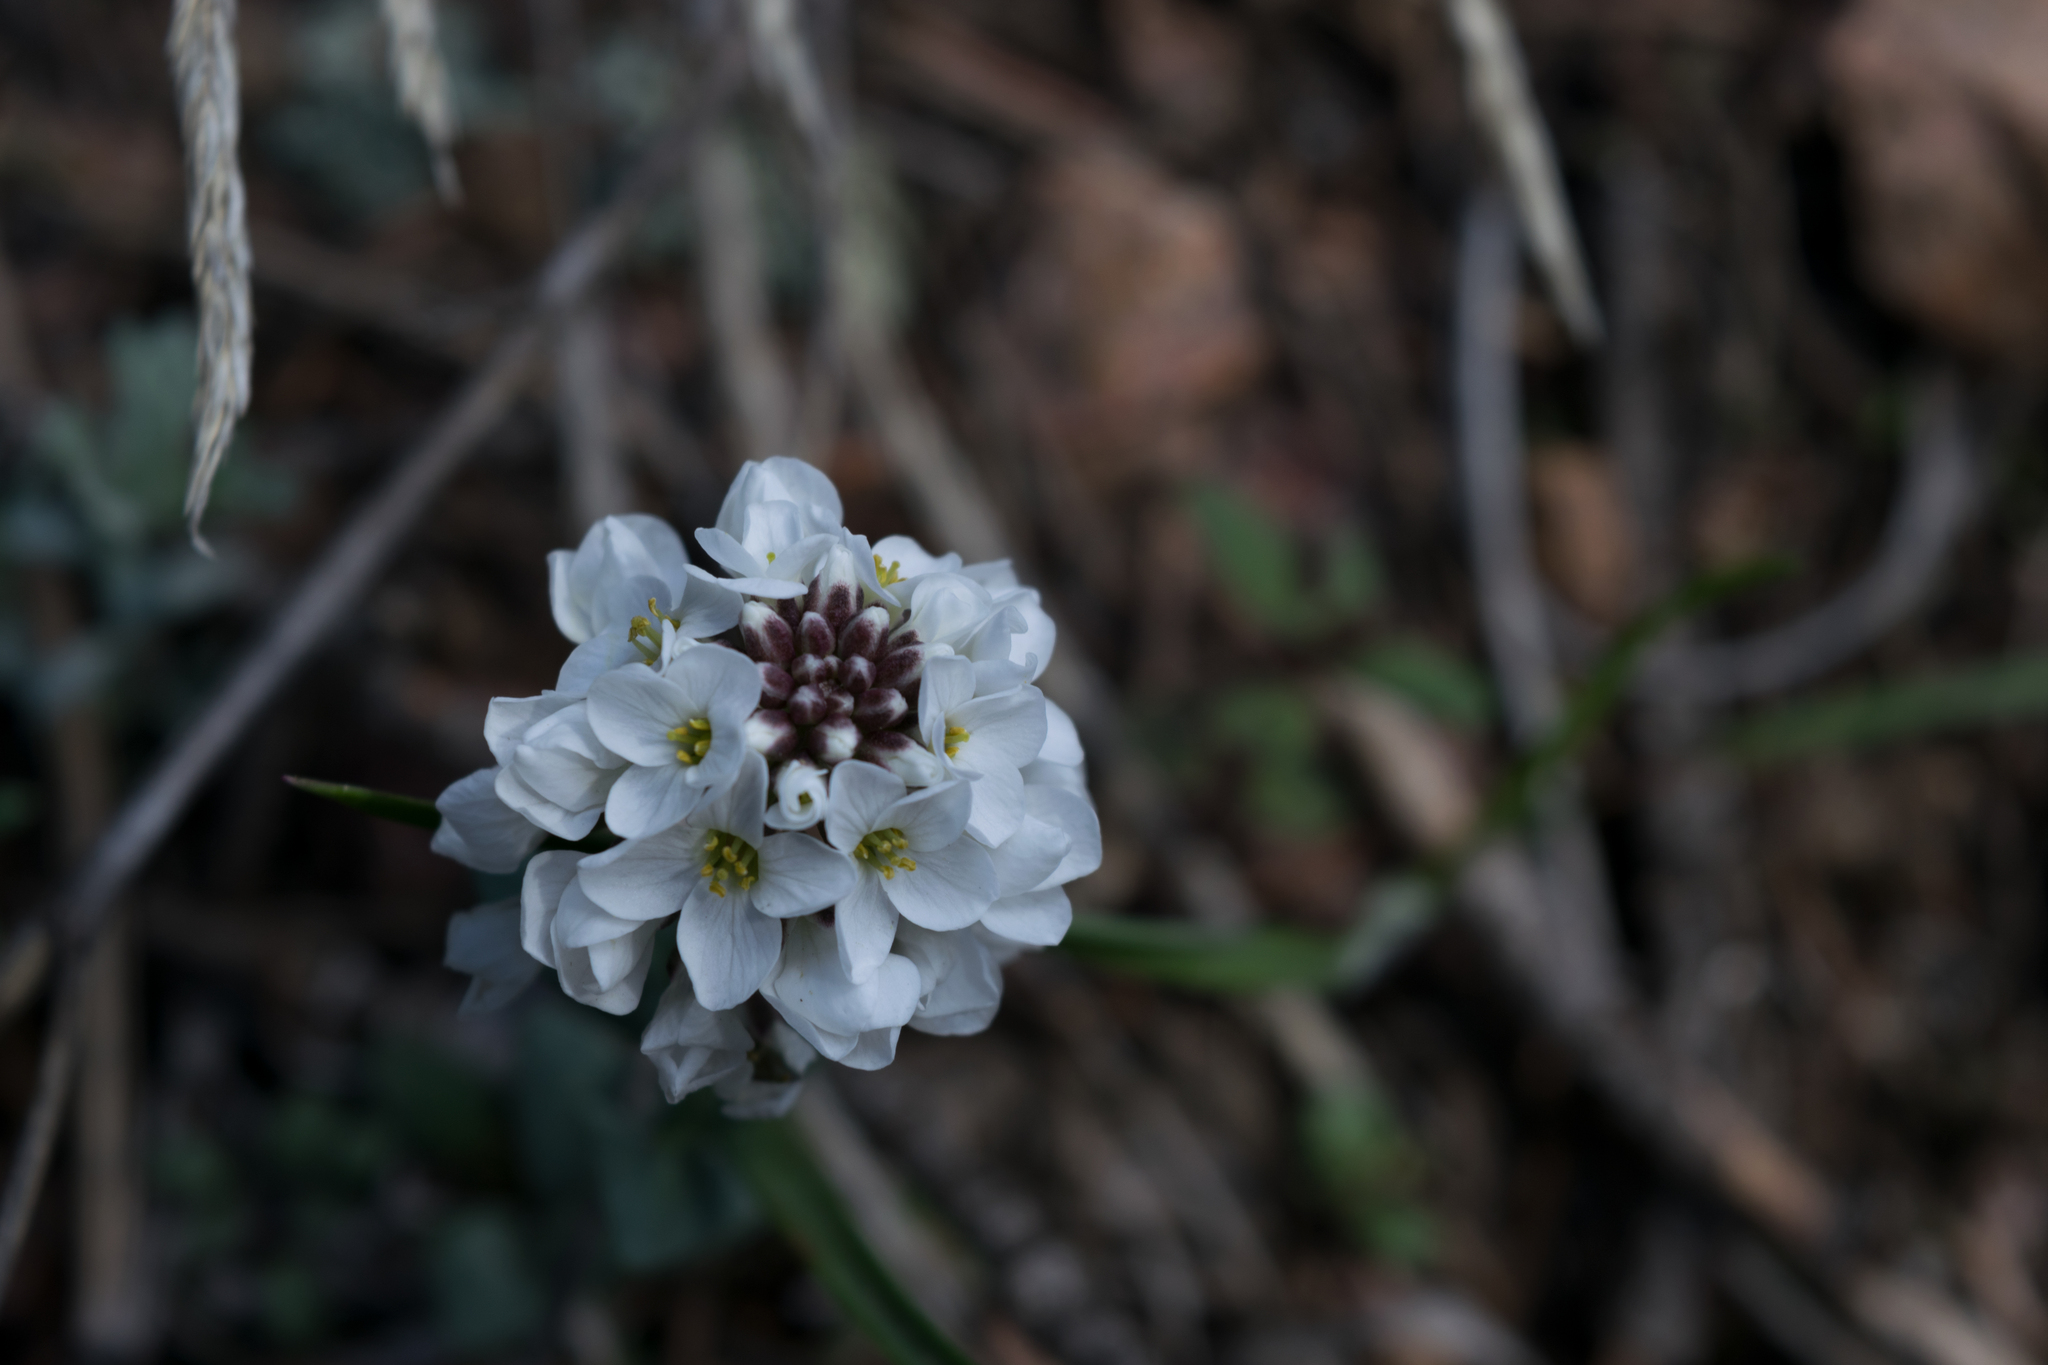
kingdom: Plantae
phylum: Tracheophyta
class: Magnoliopsida
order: Brassicales
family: Brassicaceae
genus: Noccaea
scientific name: Noccaea fendleri
